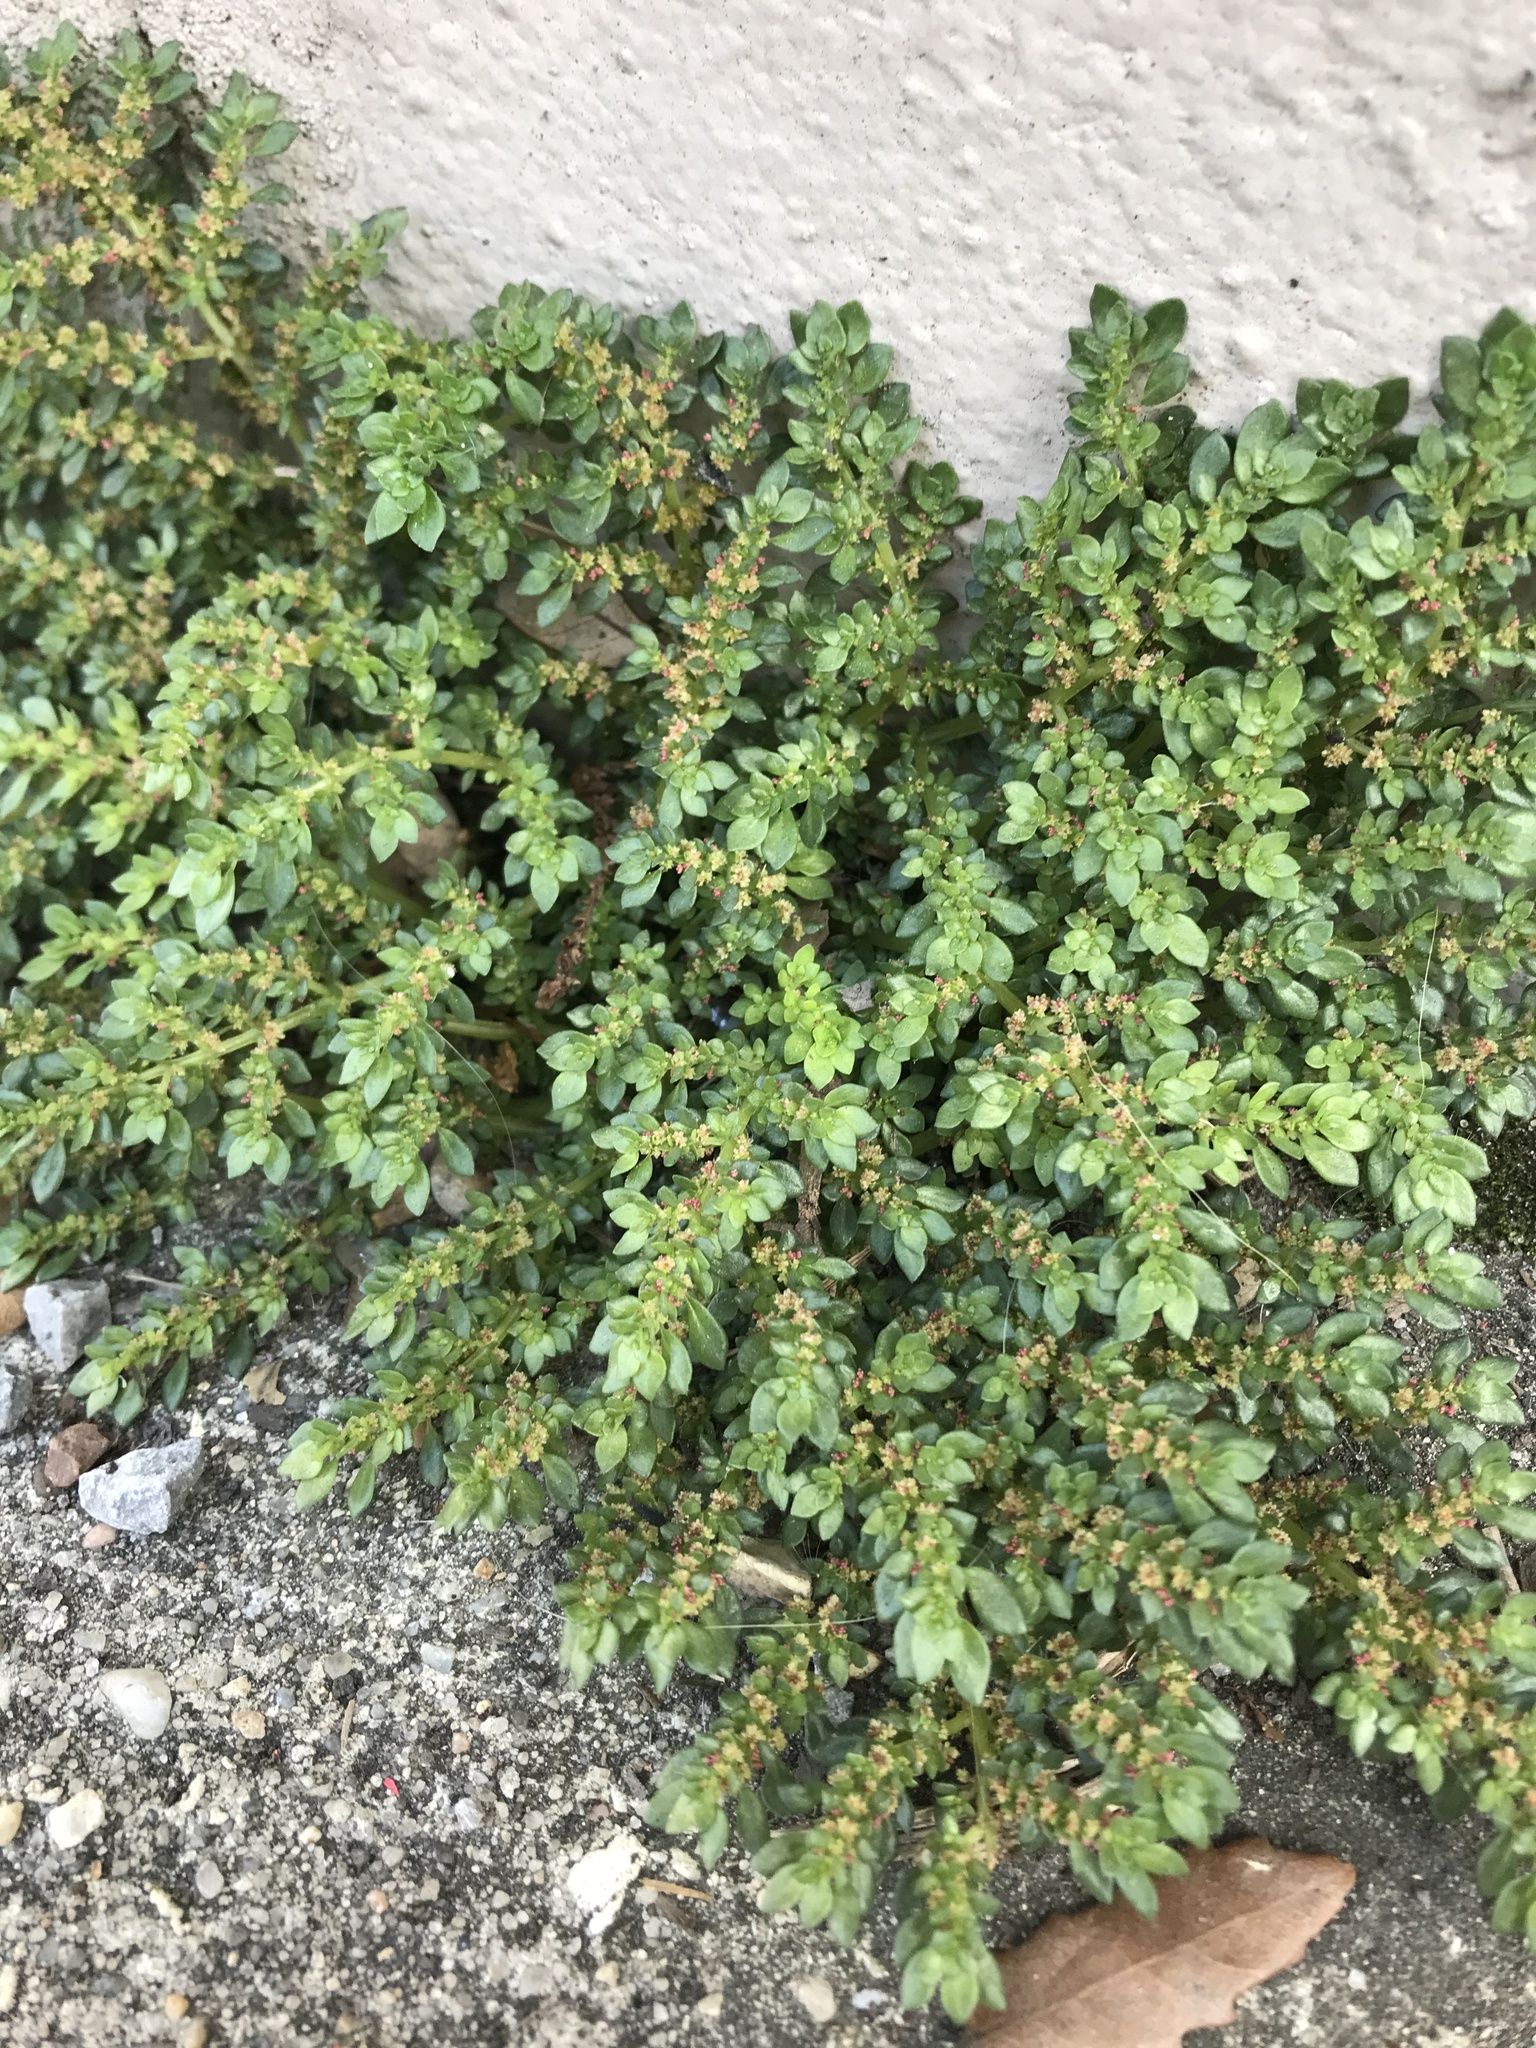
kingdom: Plantae
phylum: Tracheophyta
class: Magnoliopsida
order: Rosales
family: Urticaceae
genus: Pilea
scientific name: Pilea microphylla
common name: Artillery-plant
